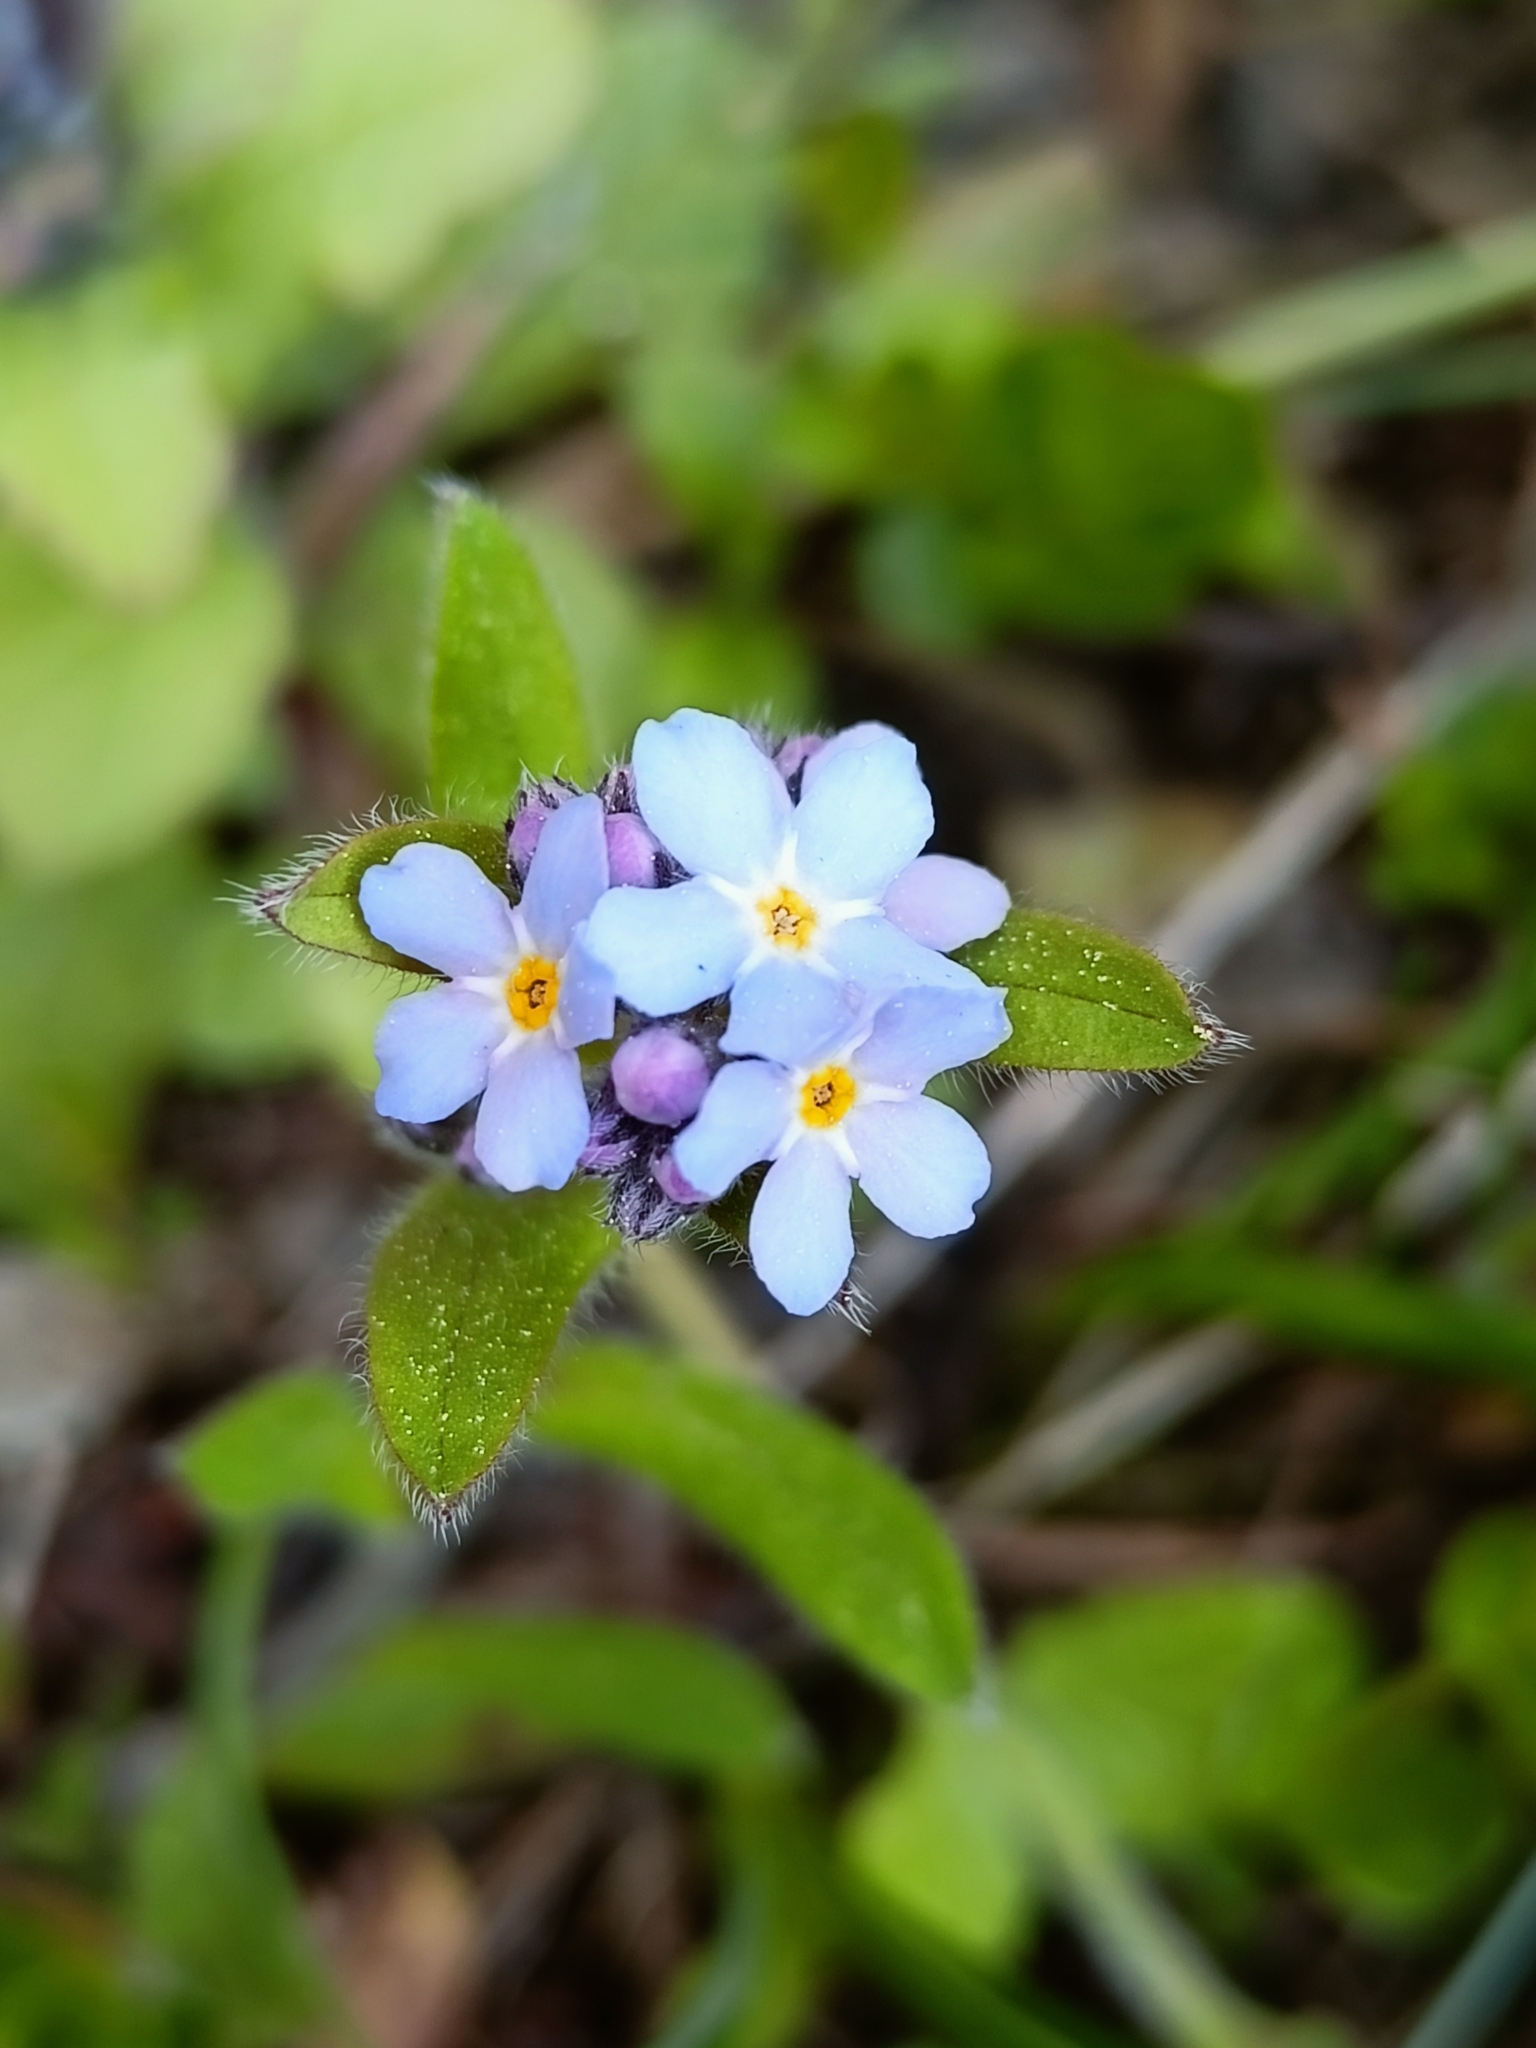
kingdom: Plantae
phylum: Tracheophyta
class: Magnoliopsida
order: Boraginales
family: Boraginaceae
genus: Myosotis
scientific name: Myosotis sylvatica
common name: Wood forget-me-not
